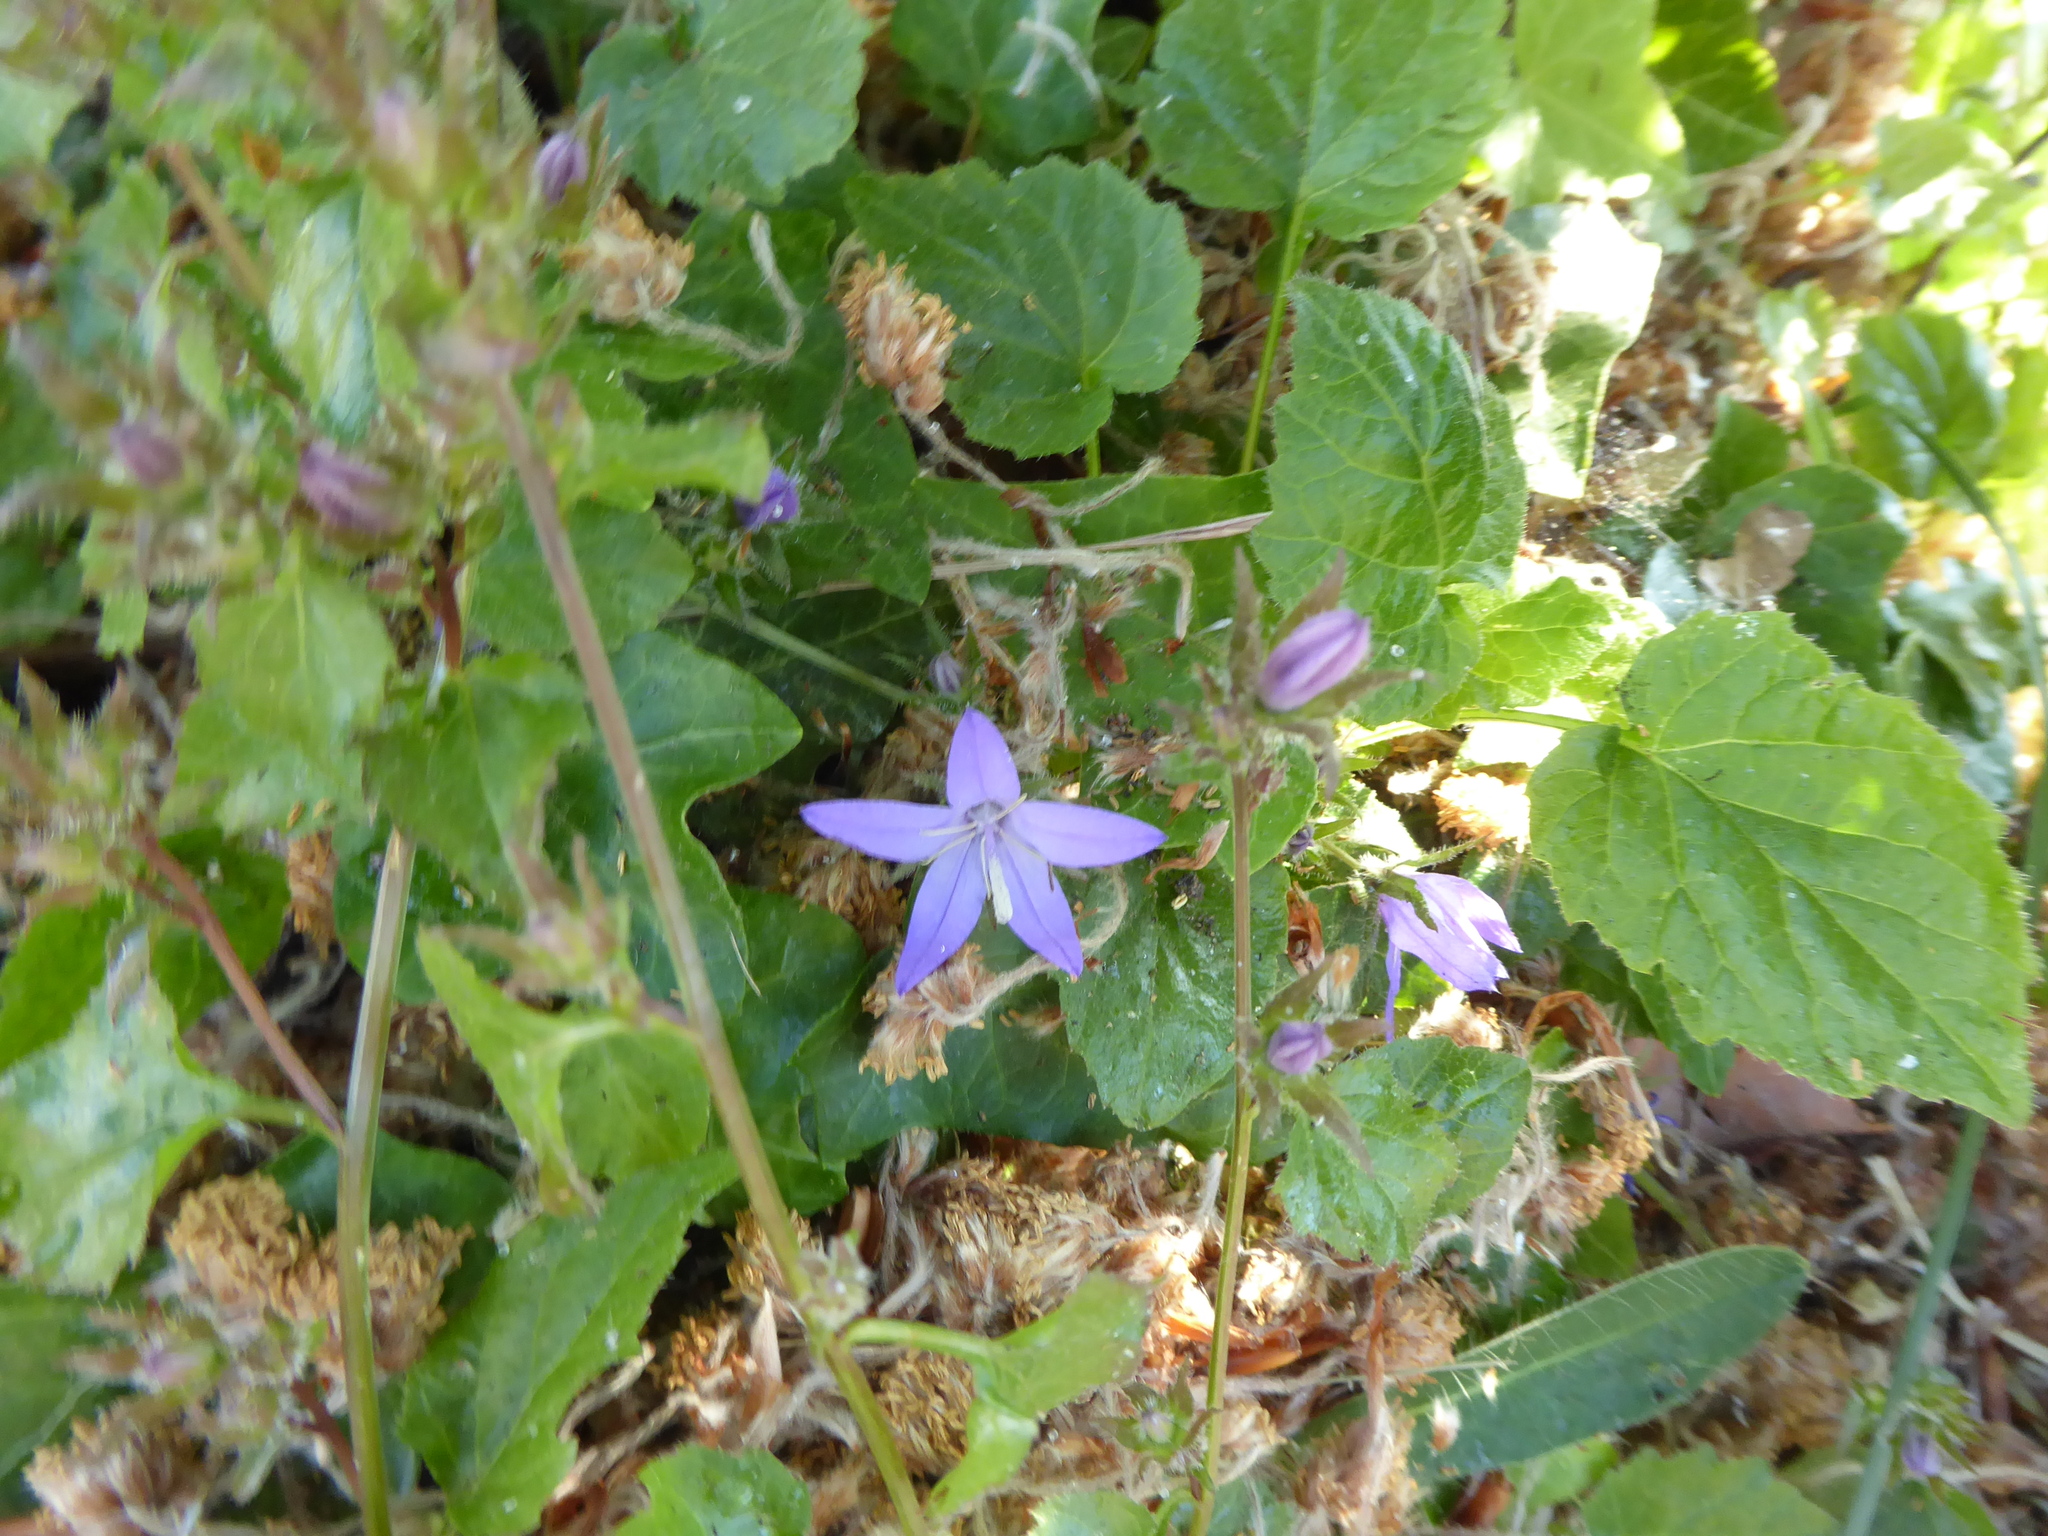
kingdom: Plantae
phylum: Tracheophyta
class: Magnoliopsida
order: Asterales
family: Campanulaceae
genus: Campanula
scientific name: Campanula poscharskyana
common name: Trailing bellflower
